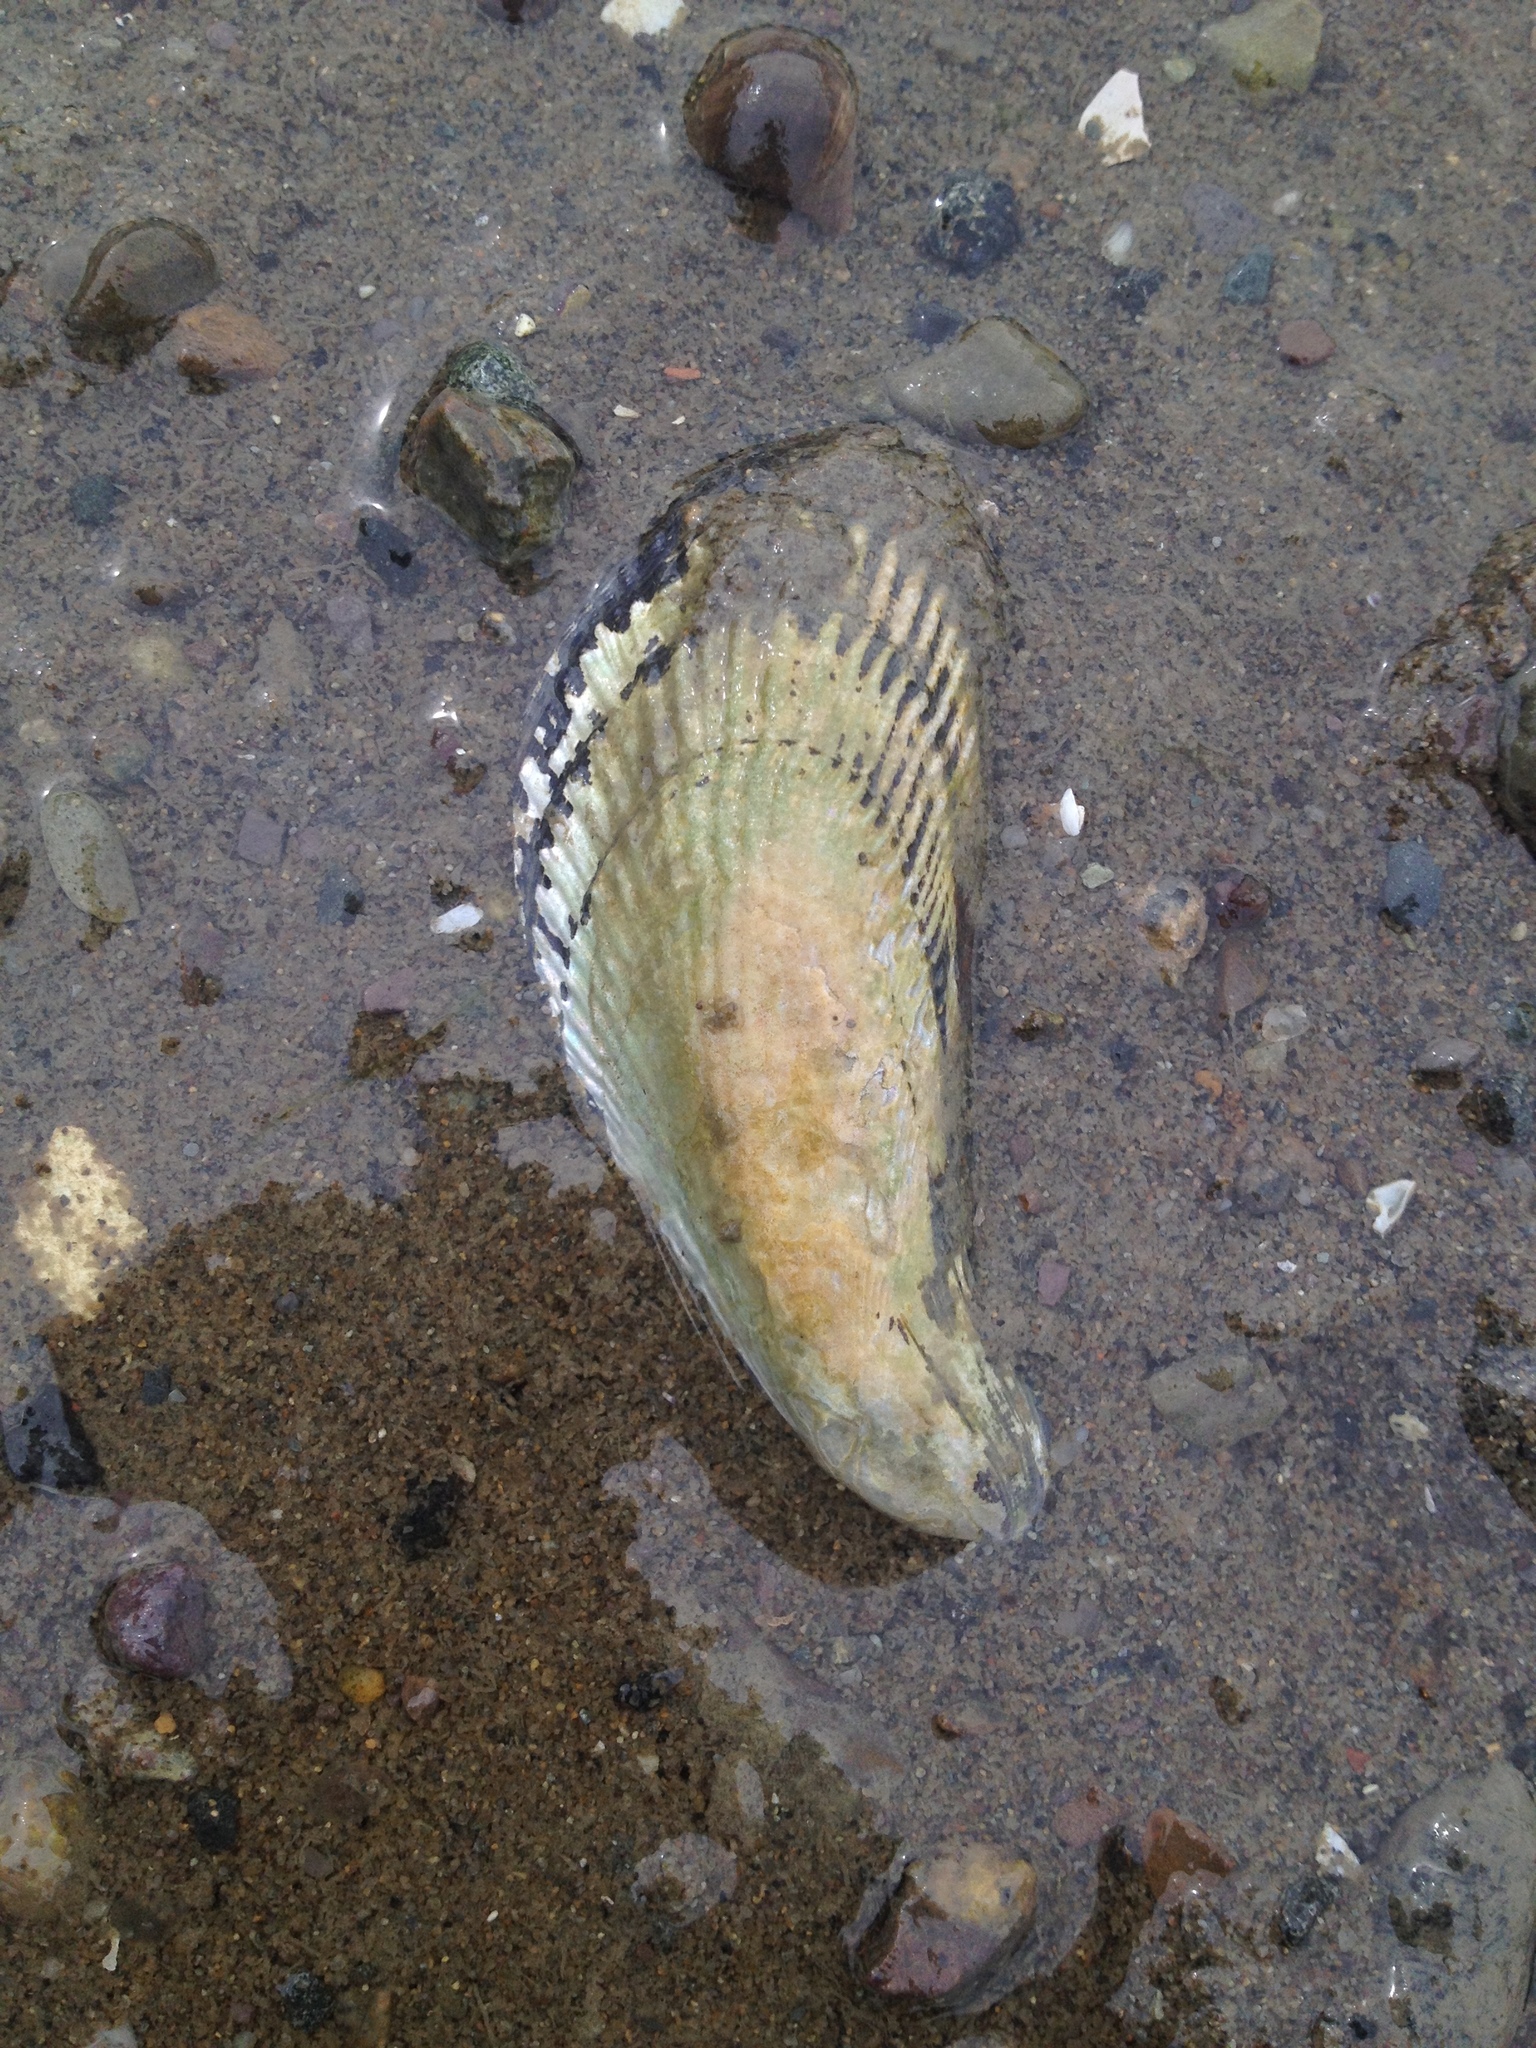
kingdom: Animalia
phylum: Mollusca
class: Bivalvia
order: Mytilida
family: Mytilidae
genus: Geukensia
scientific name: Geukensia demissa
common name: Ribbed mussel
